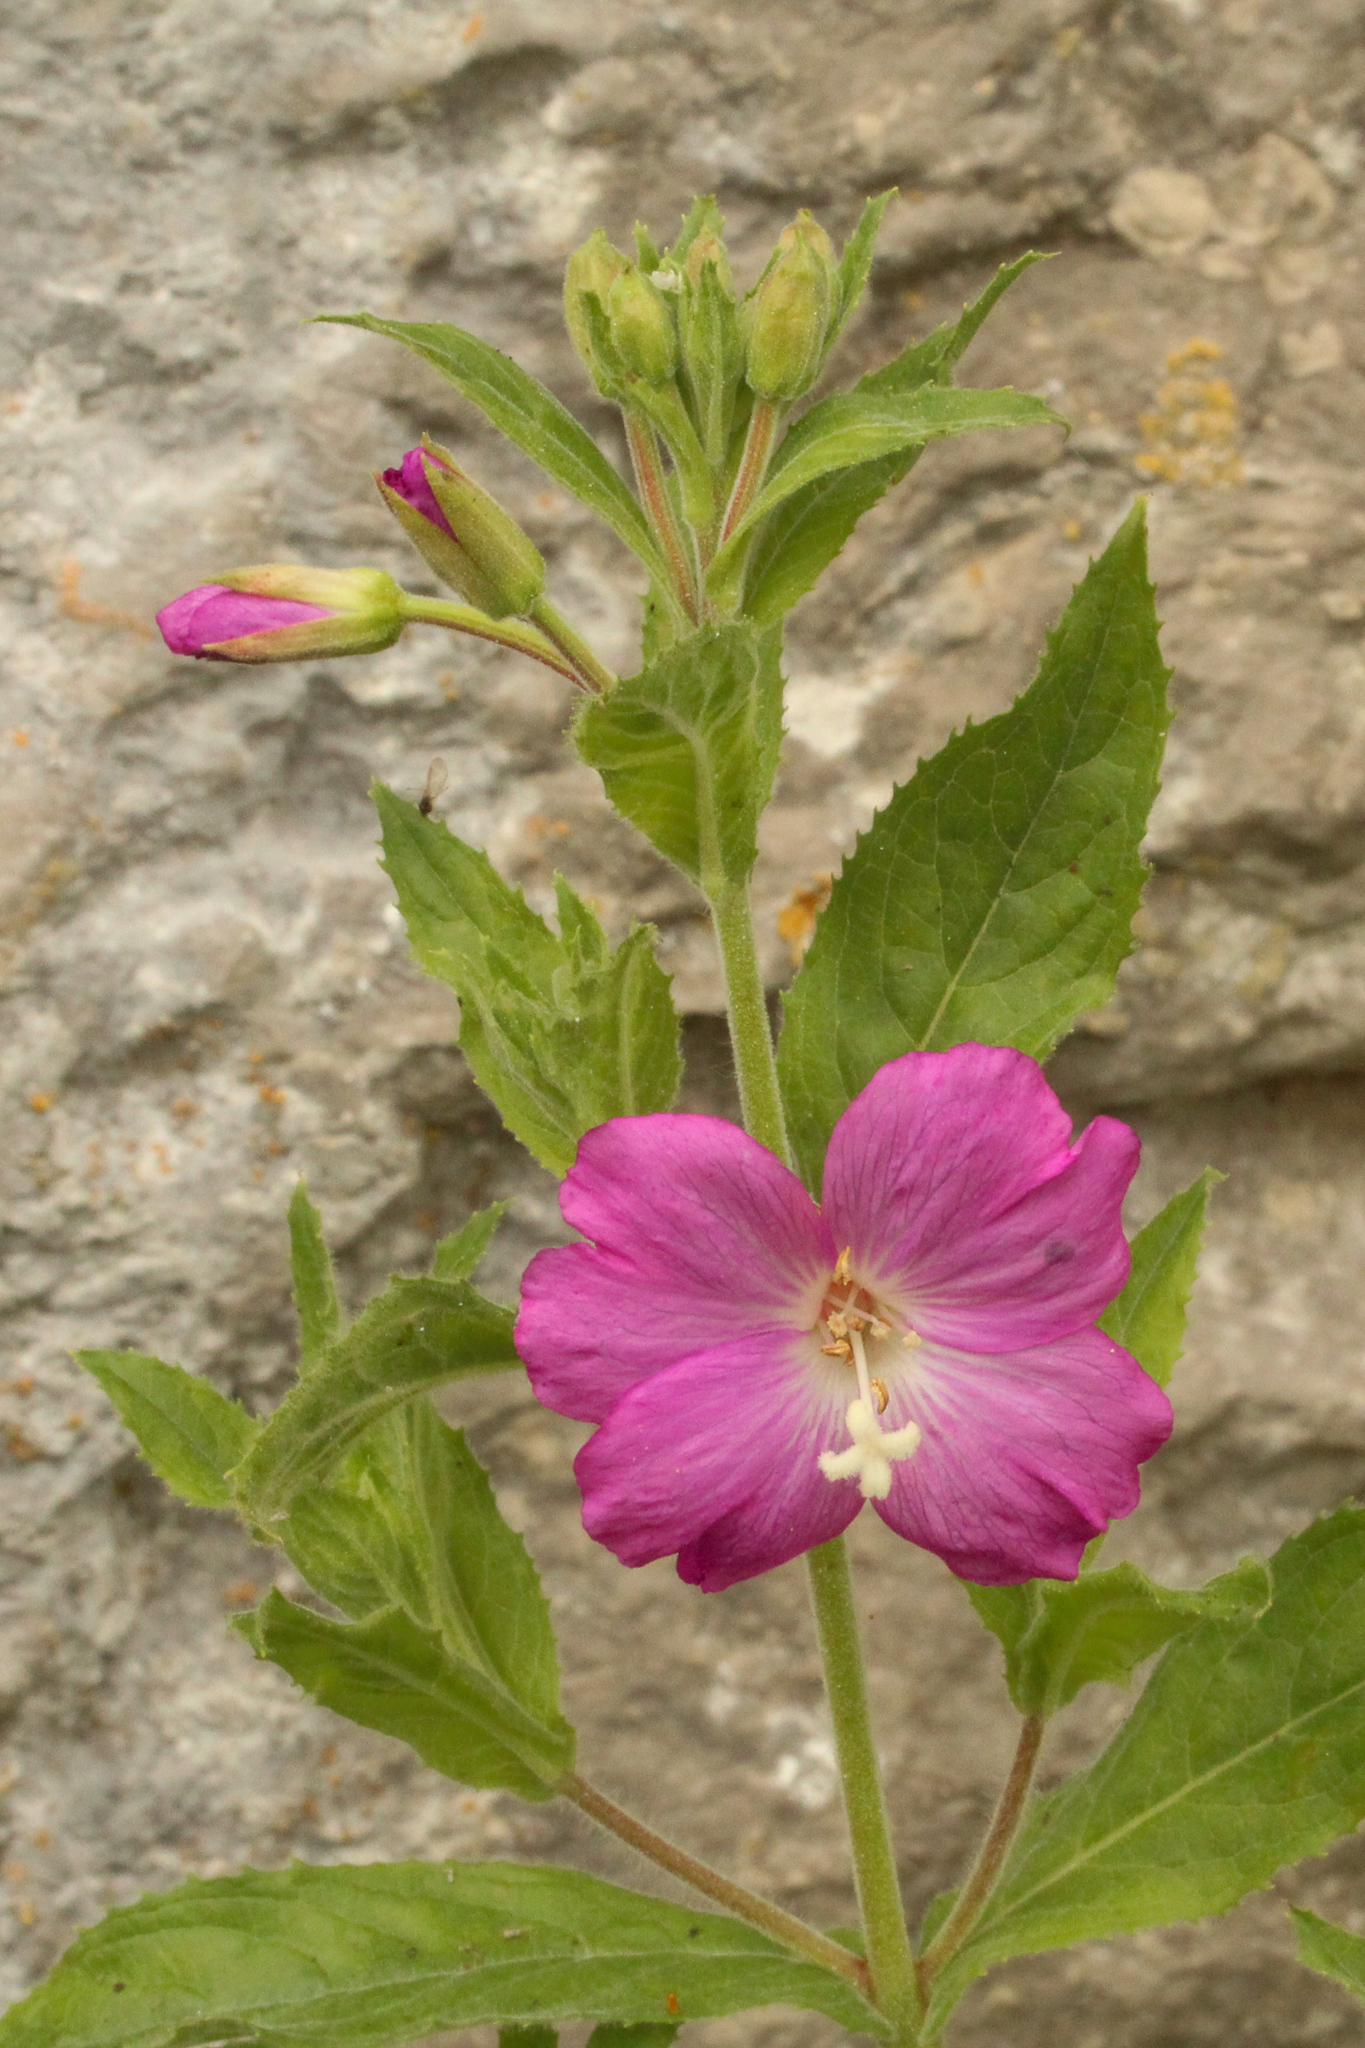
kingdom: Plantae
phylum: Tracheophyta
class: Magnoliopsida
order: Myrtales
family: Onagraceae
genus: Epilobium
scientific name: Epilobium hirsutum
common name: Great willowherb
